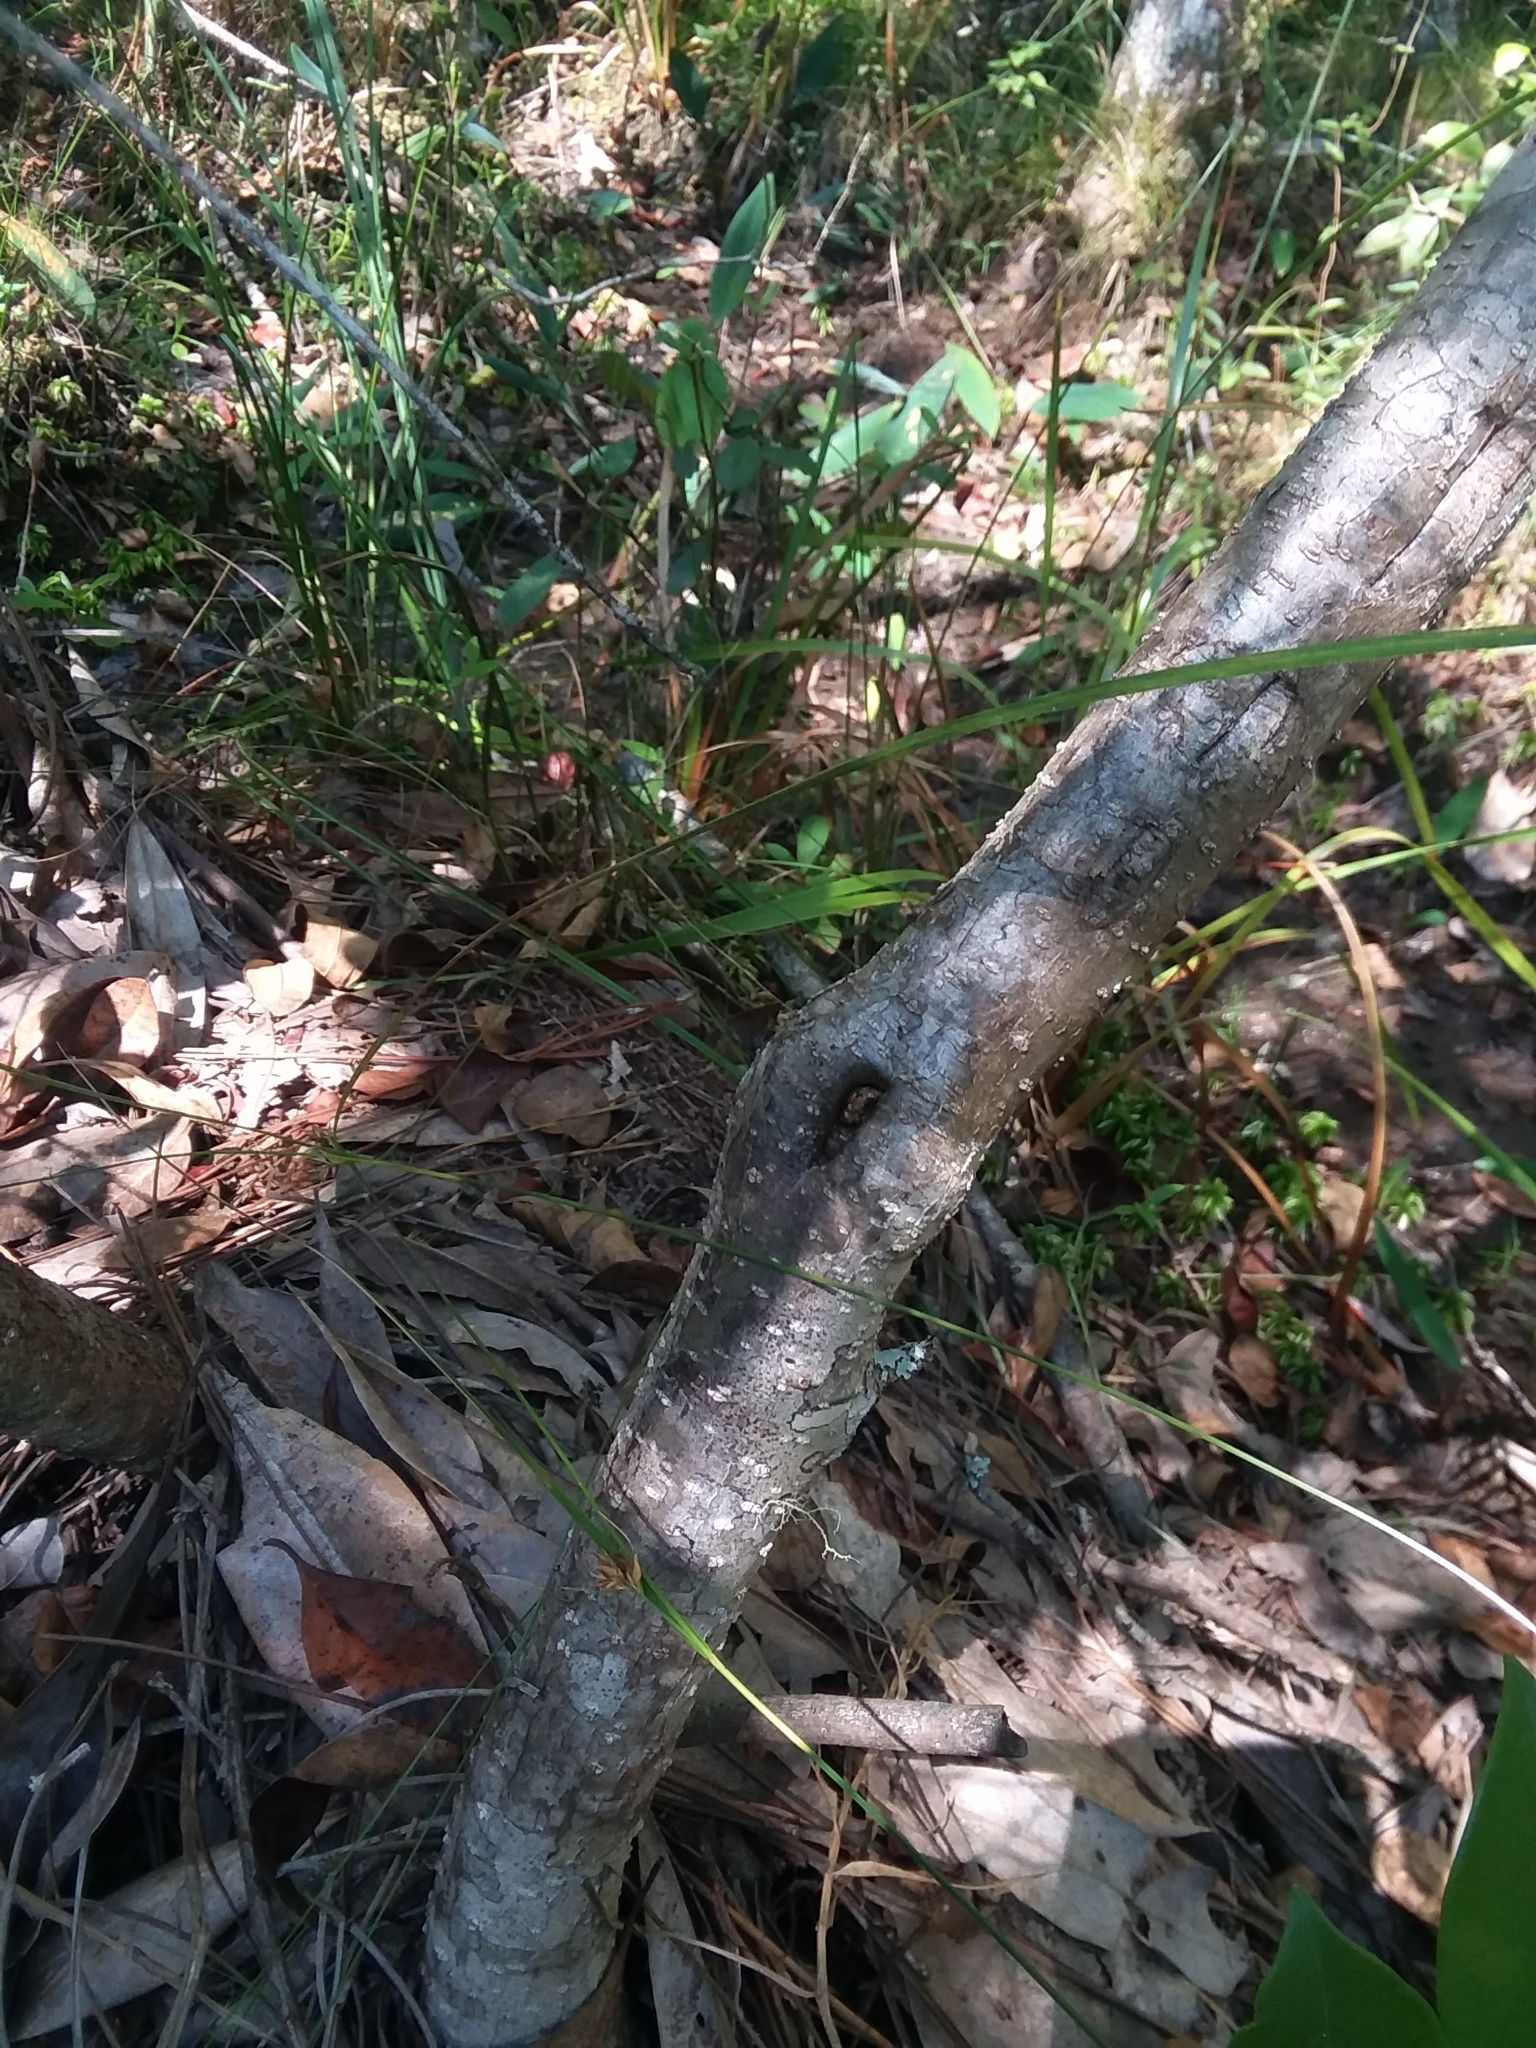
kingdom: Plantae
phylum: Tracheophyta
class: Magnoliopsida
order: Fagales
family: Myricaceae
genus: Morella
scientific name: Morella cerifera
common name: Wax myrtle
